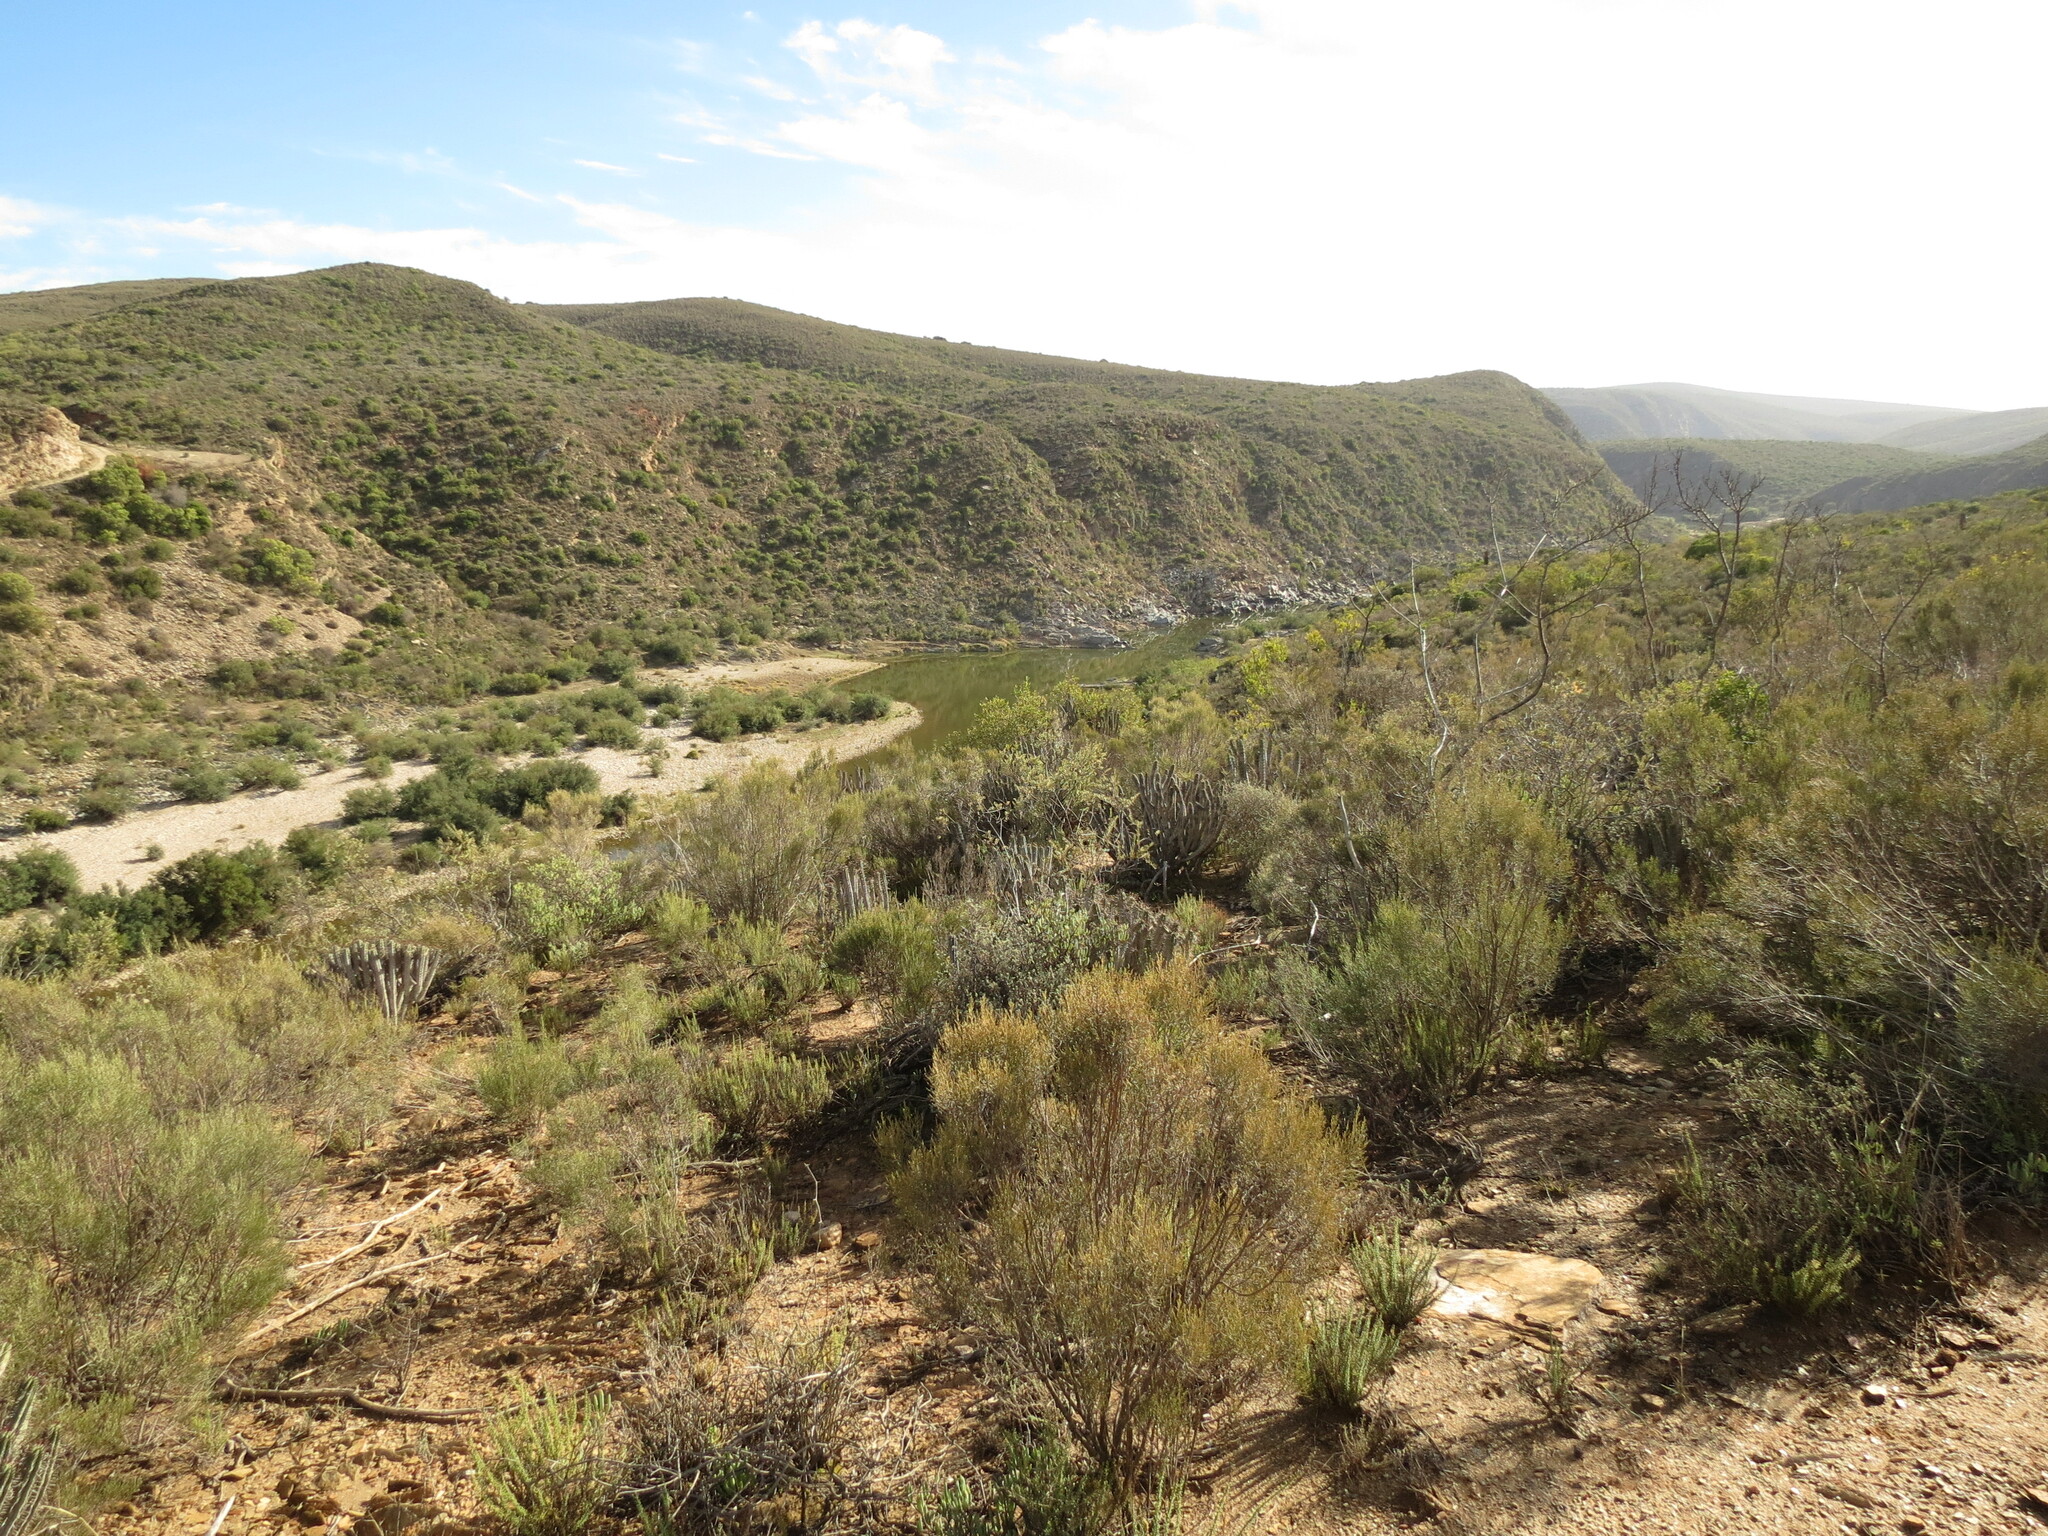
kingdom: Plantae
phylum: Tracheophyta
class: Magnoliopsida
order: Asterales
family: Asteraceae
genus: Dicerothamnus
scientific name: Dicerothamnus rhinocerotis
